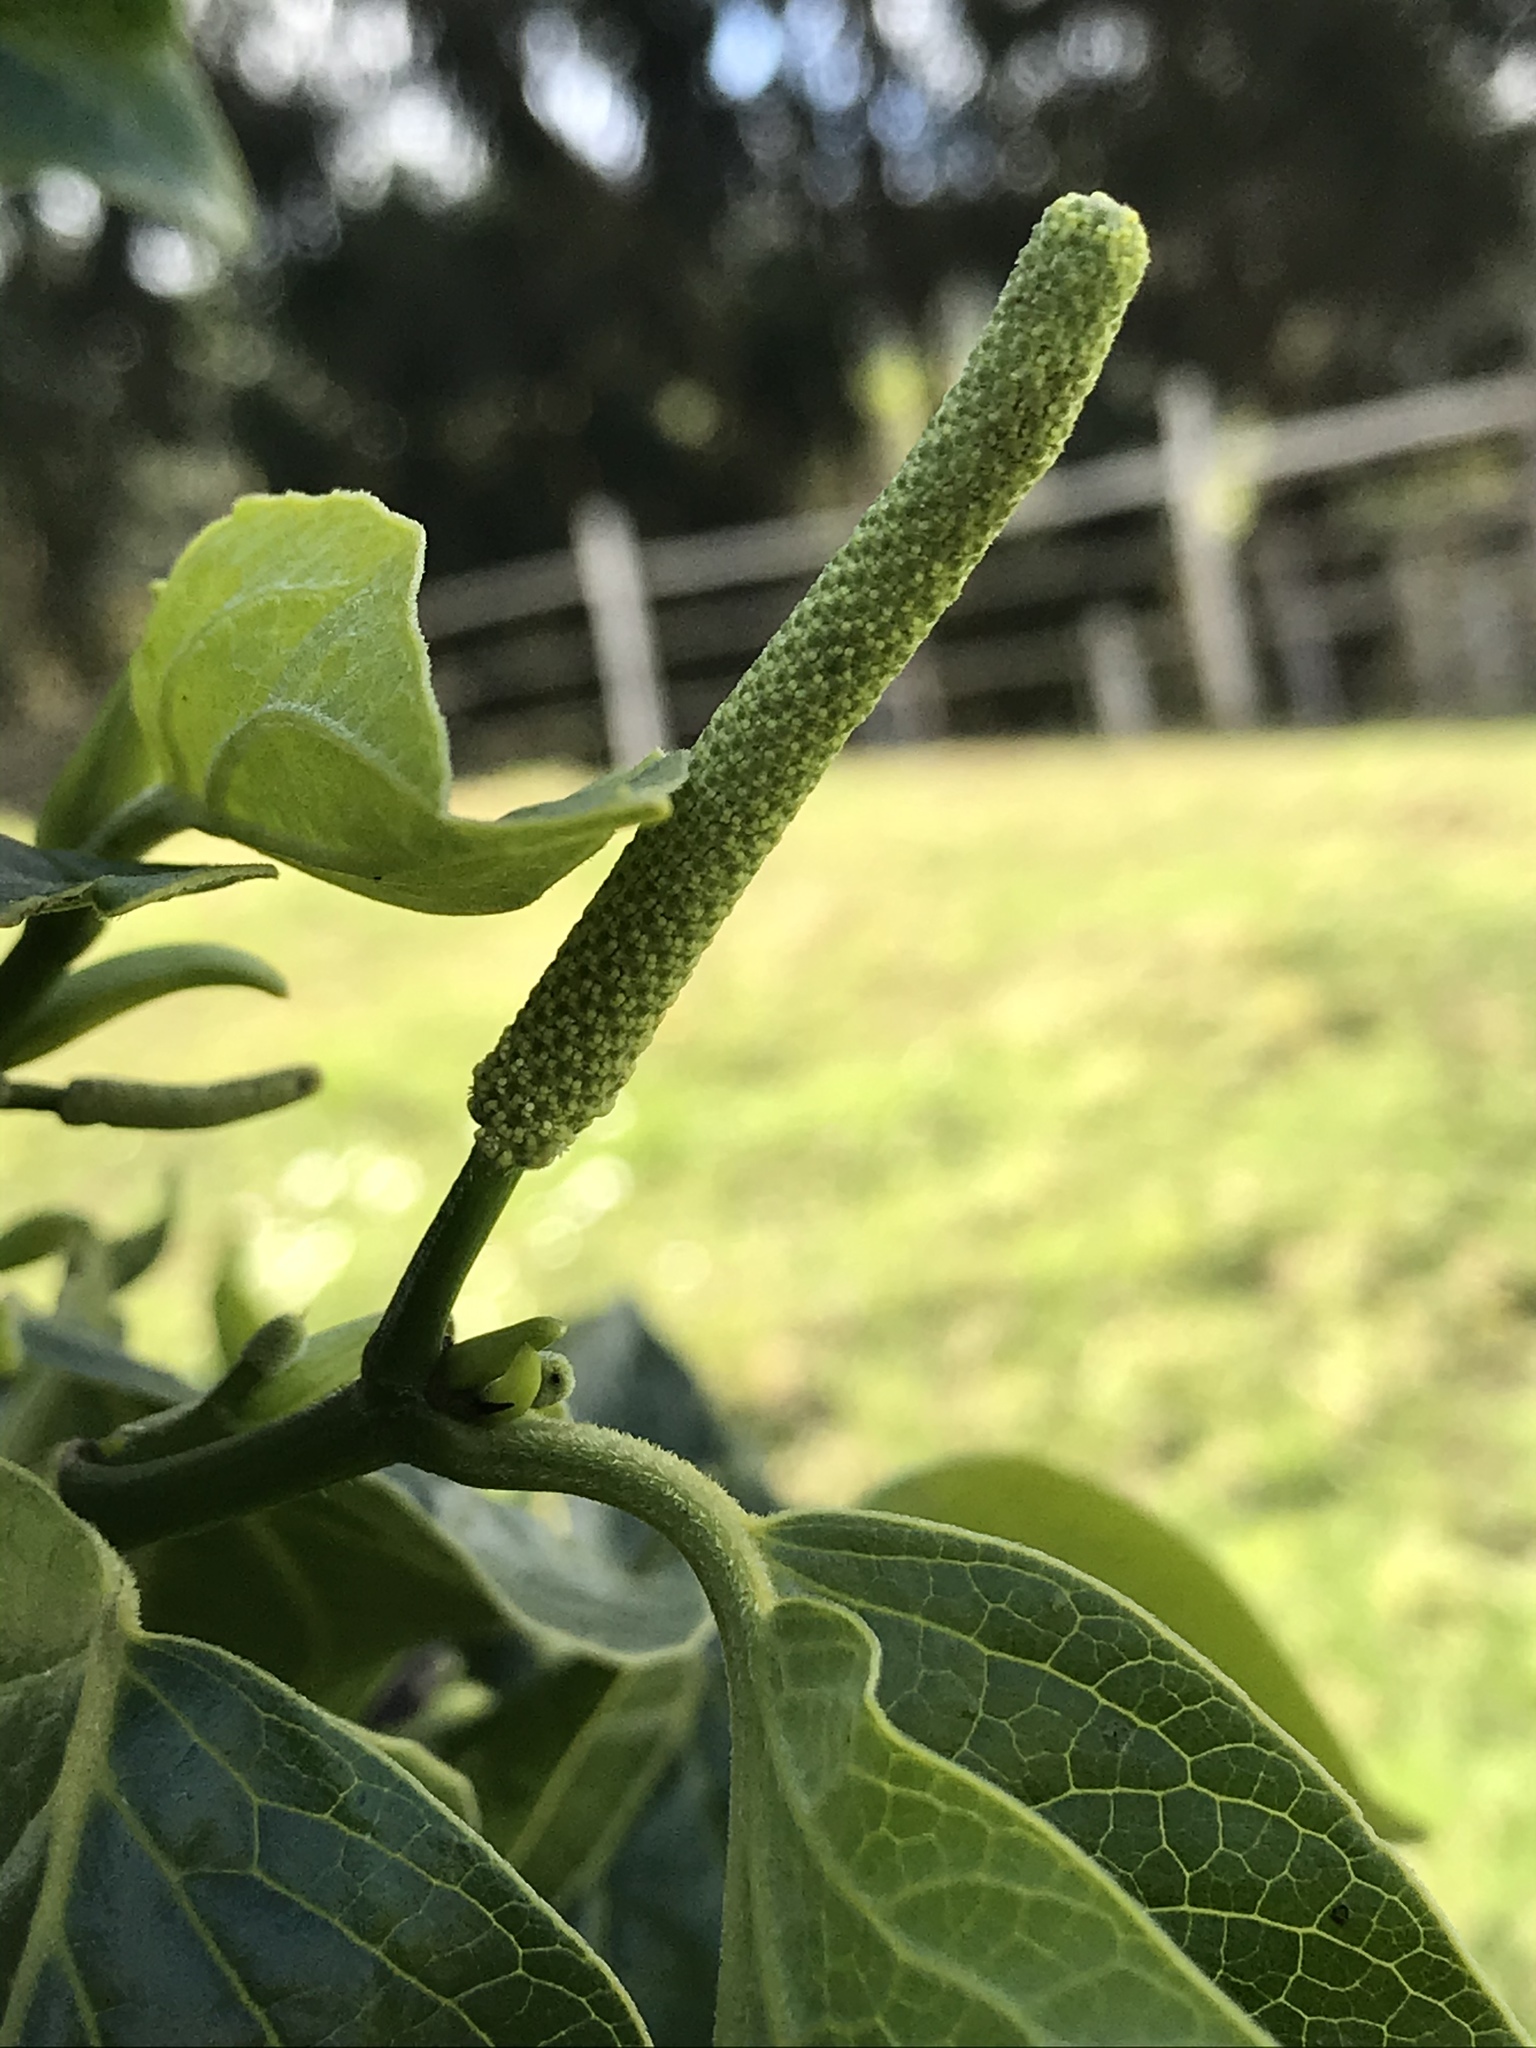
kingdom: Plantae
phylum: Tracheophyta
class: Magnoliopsida
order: Piperales
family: Piperaceae
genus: Piper
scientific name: Piper barbatum
